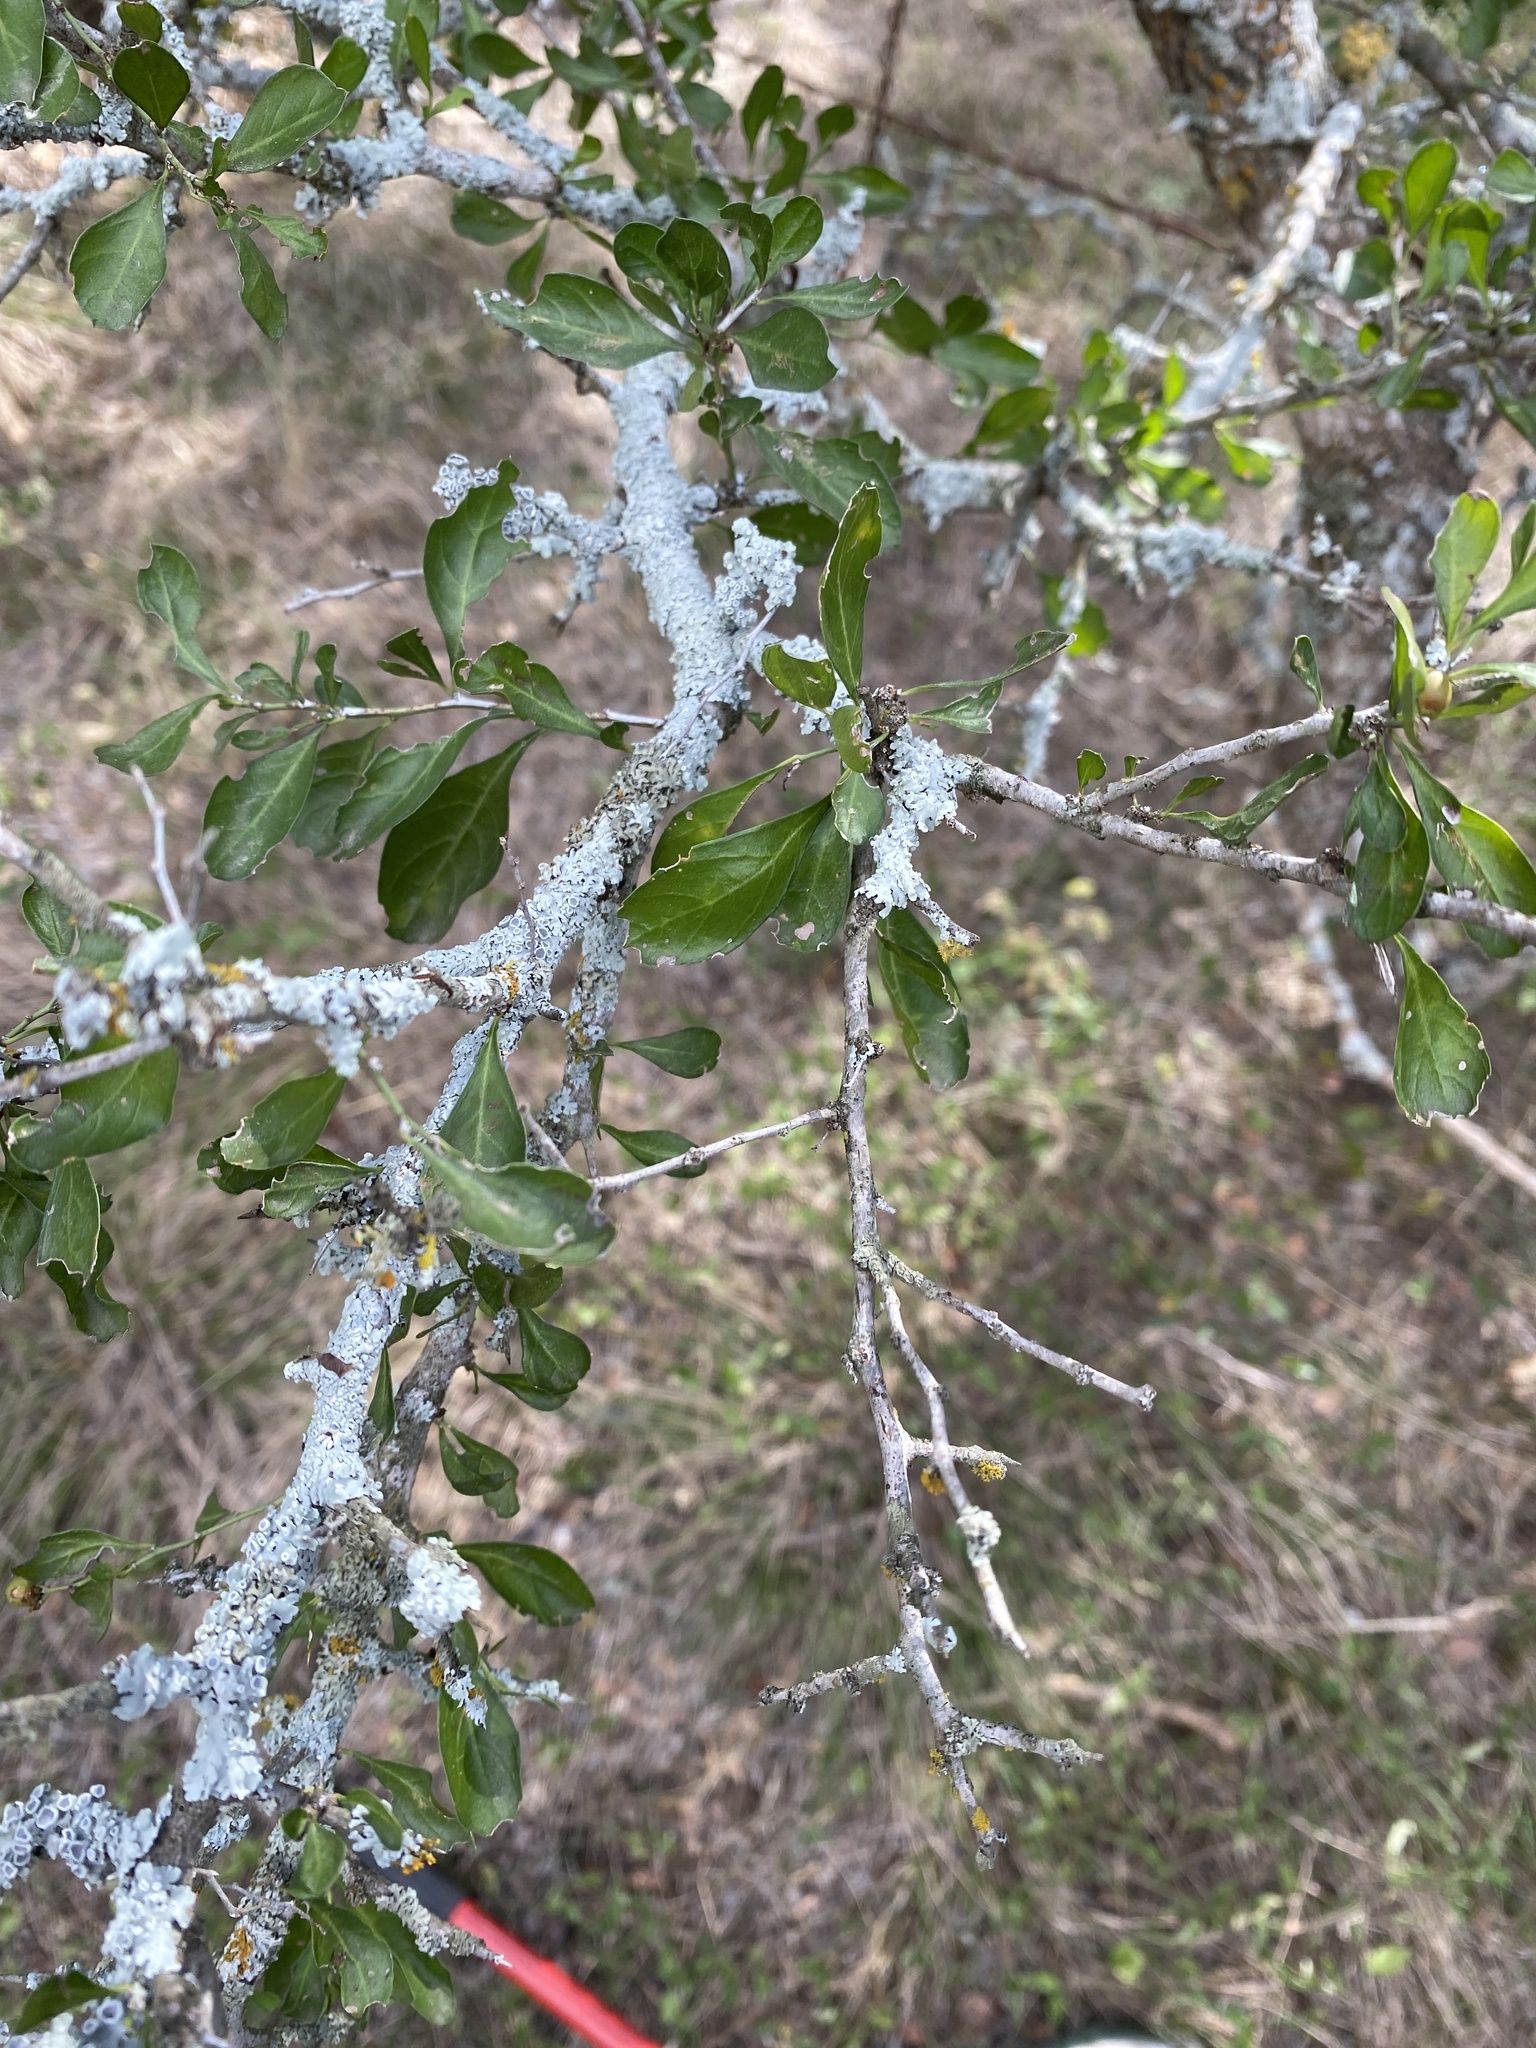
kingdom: Plantae
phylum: Tracheophyta
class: Magnoliopsida
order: Rosales
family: Rhamnaceae
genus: Condalia
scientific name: Condalia hookeri
